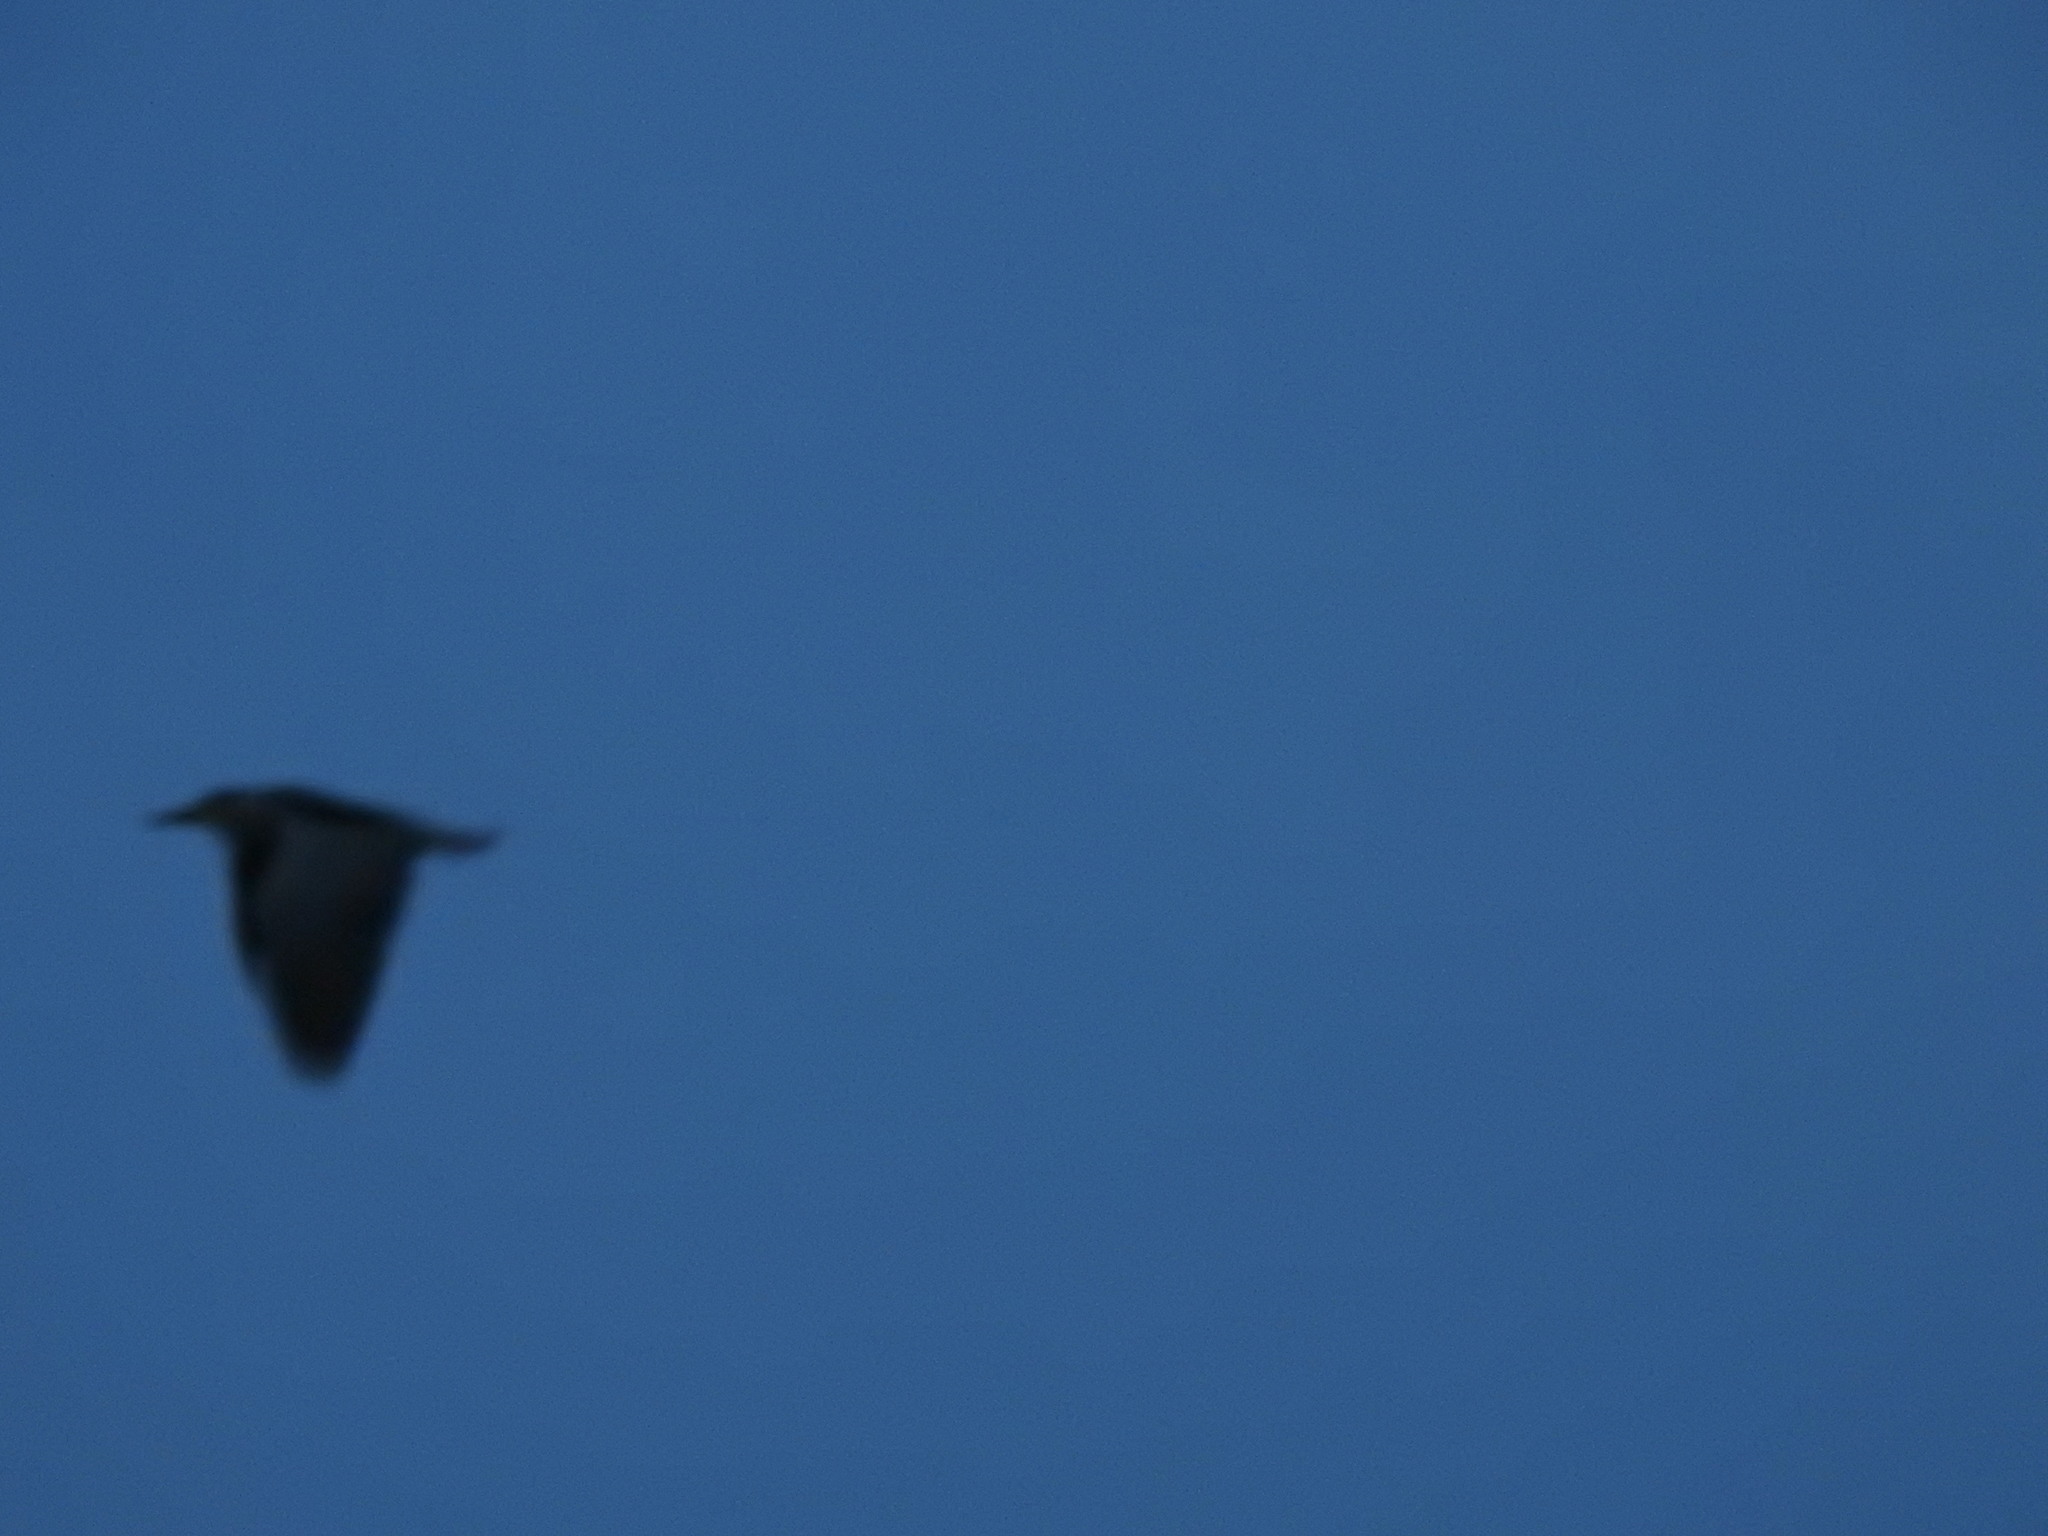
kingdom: Animalia
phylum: Chordata
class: Aves
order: Pelecaniformes
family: Ardeidae
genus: Nycticorax
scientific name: Nycticorax nycticorax
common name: Black-crowned night heron
